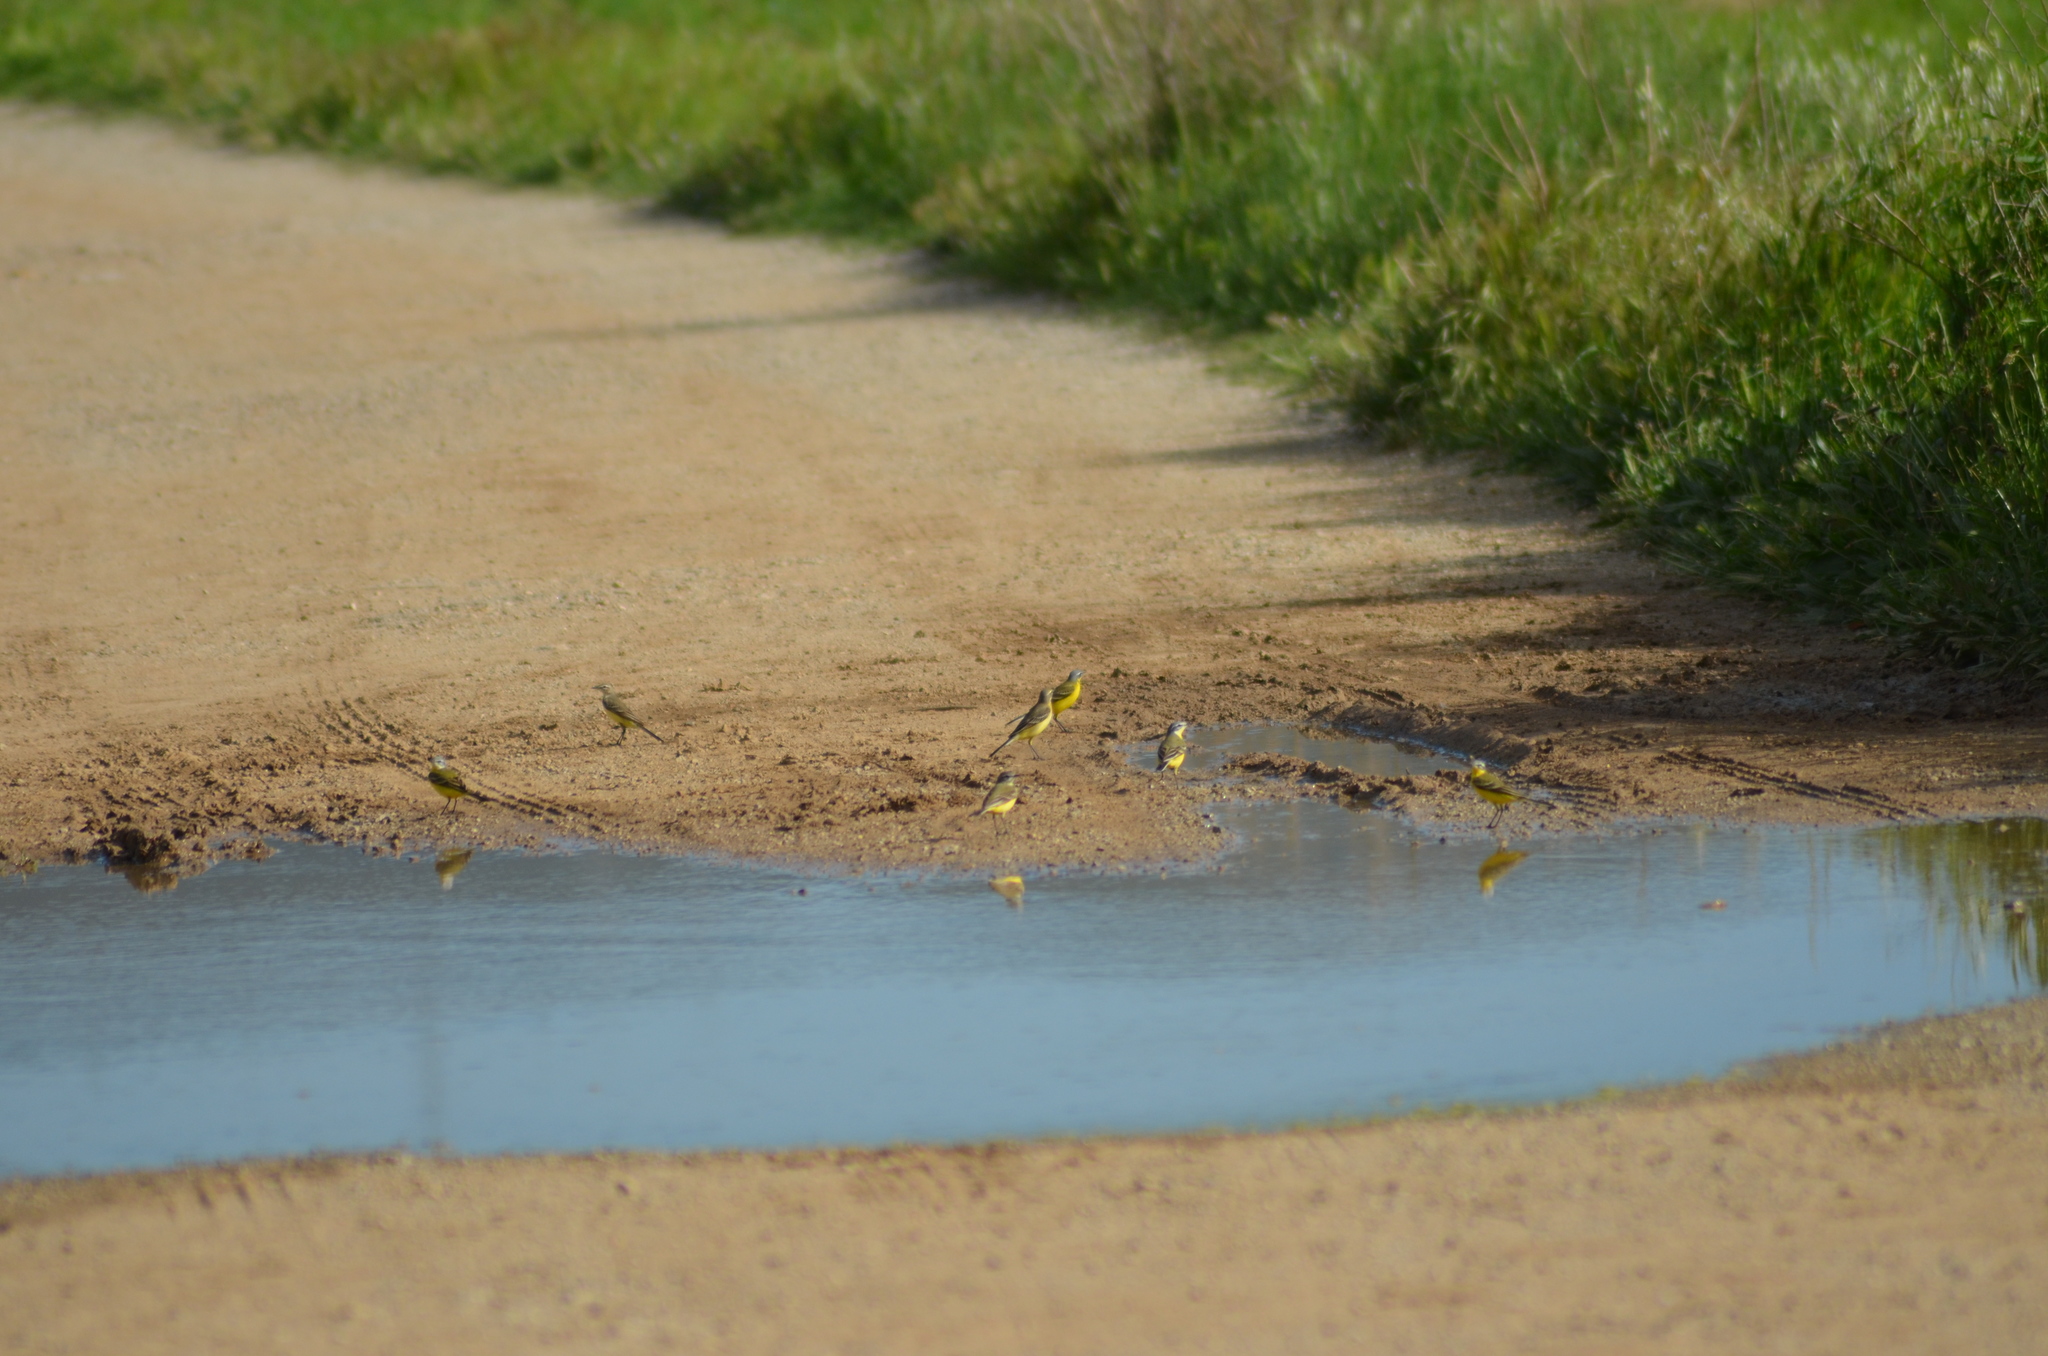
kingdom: Animalia
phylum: Chordata
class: Aves
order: Passeriformes
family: Motacillidae
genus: Motacilla
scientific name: Motacilla flava
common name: Western yellow wagtail
